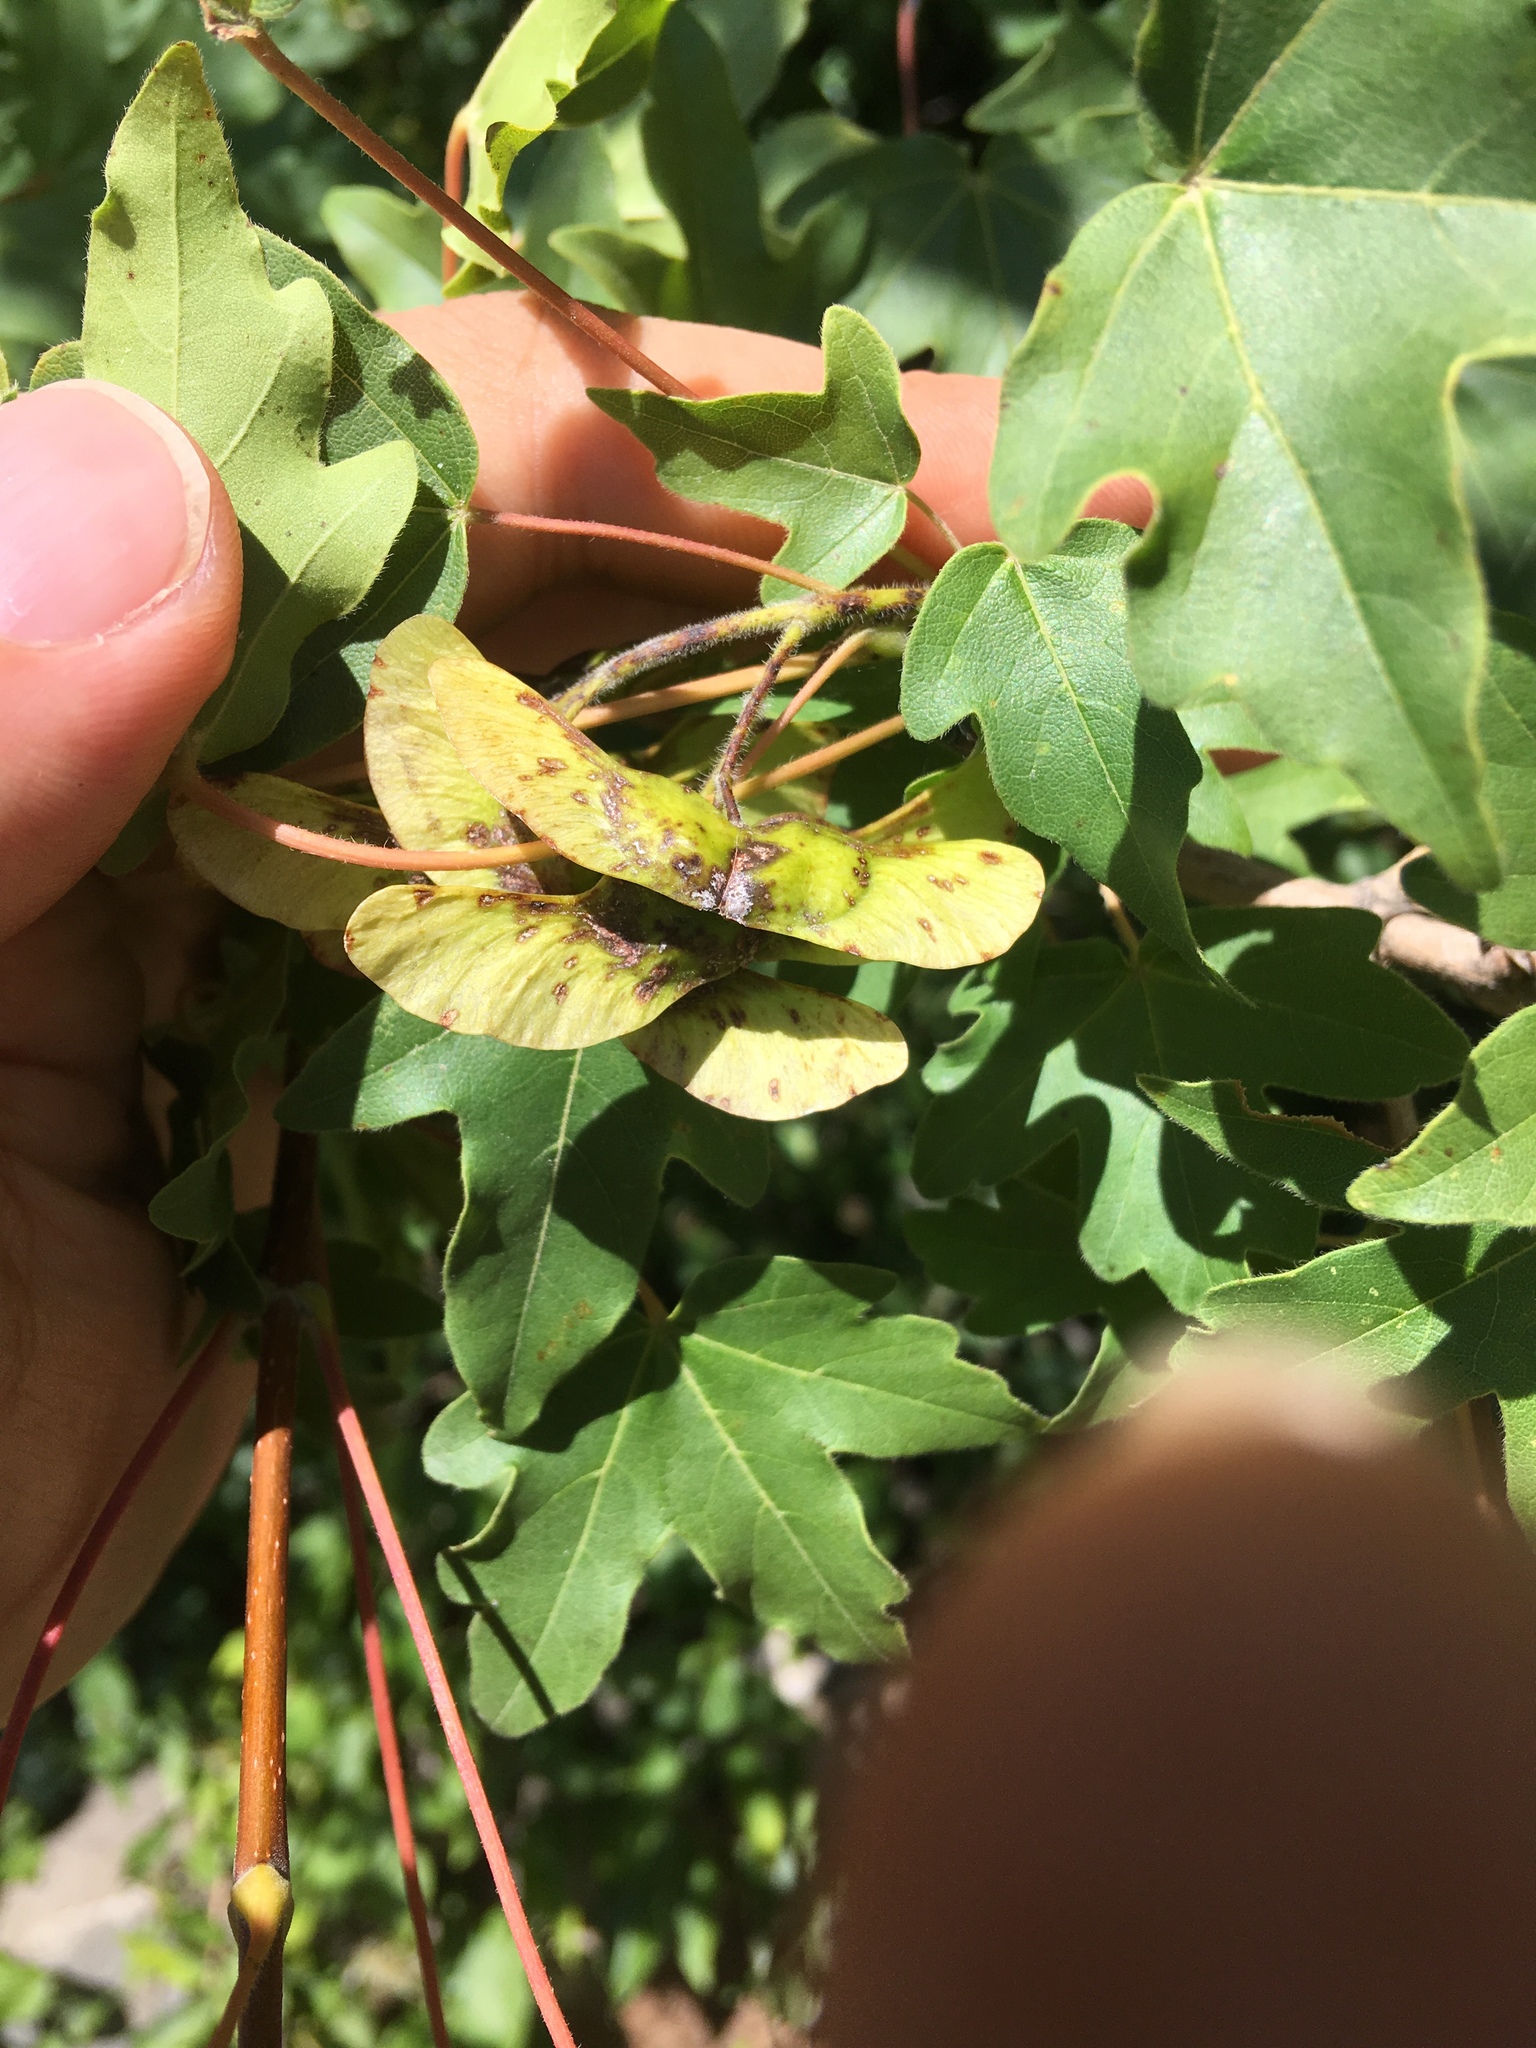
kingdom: Plantae
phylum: Tracheophyta
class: Magnoliopsida
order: Sapindales
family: Sapindaceae
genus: Acer
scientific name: Acer campestre
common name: Field maple
